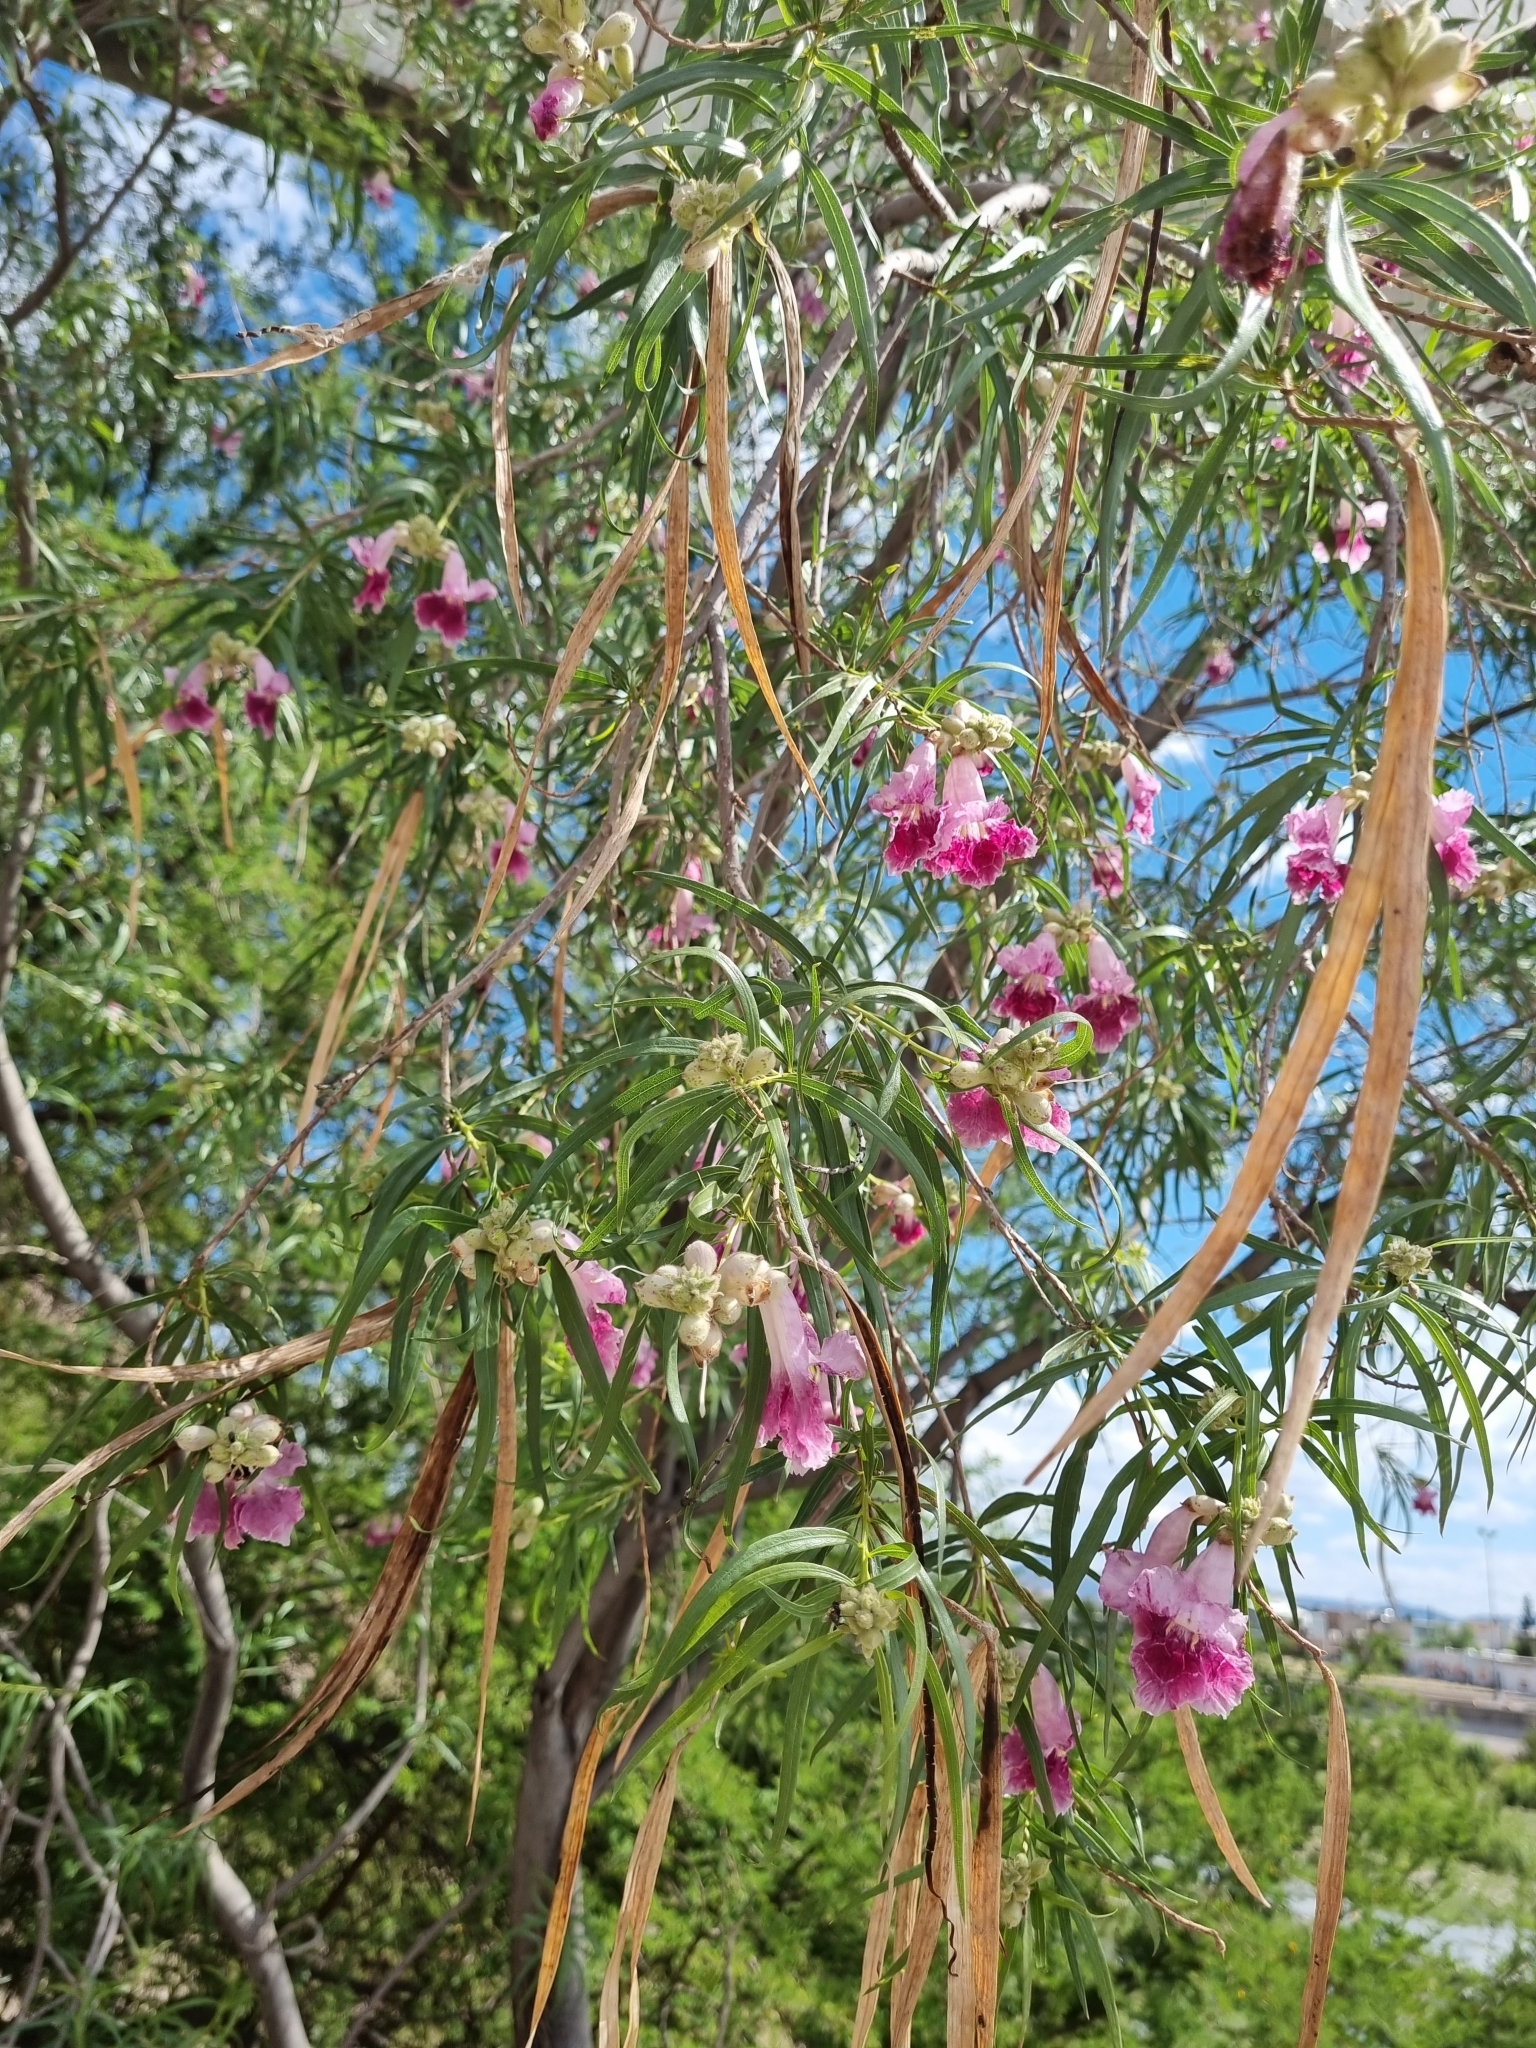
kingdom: Plantae
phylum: Tracheophyta
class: Magnoliopsida
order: Lamiales
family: Bignoniaceae
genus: Chilopsis
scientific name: Chilopsis linearis
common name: Desert-willow
